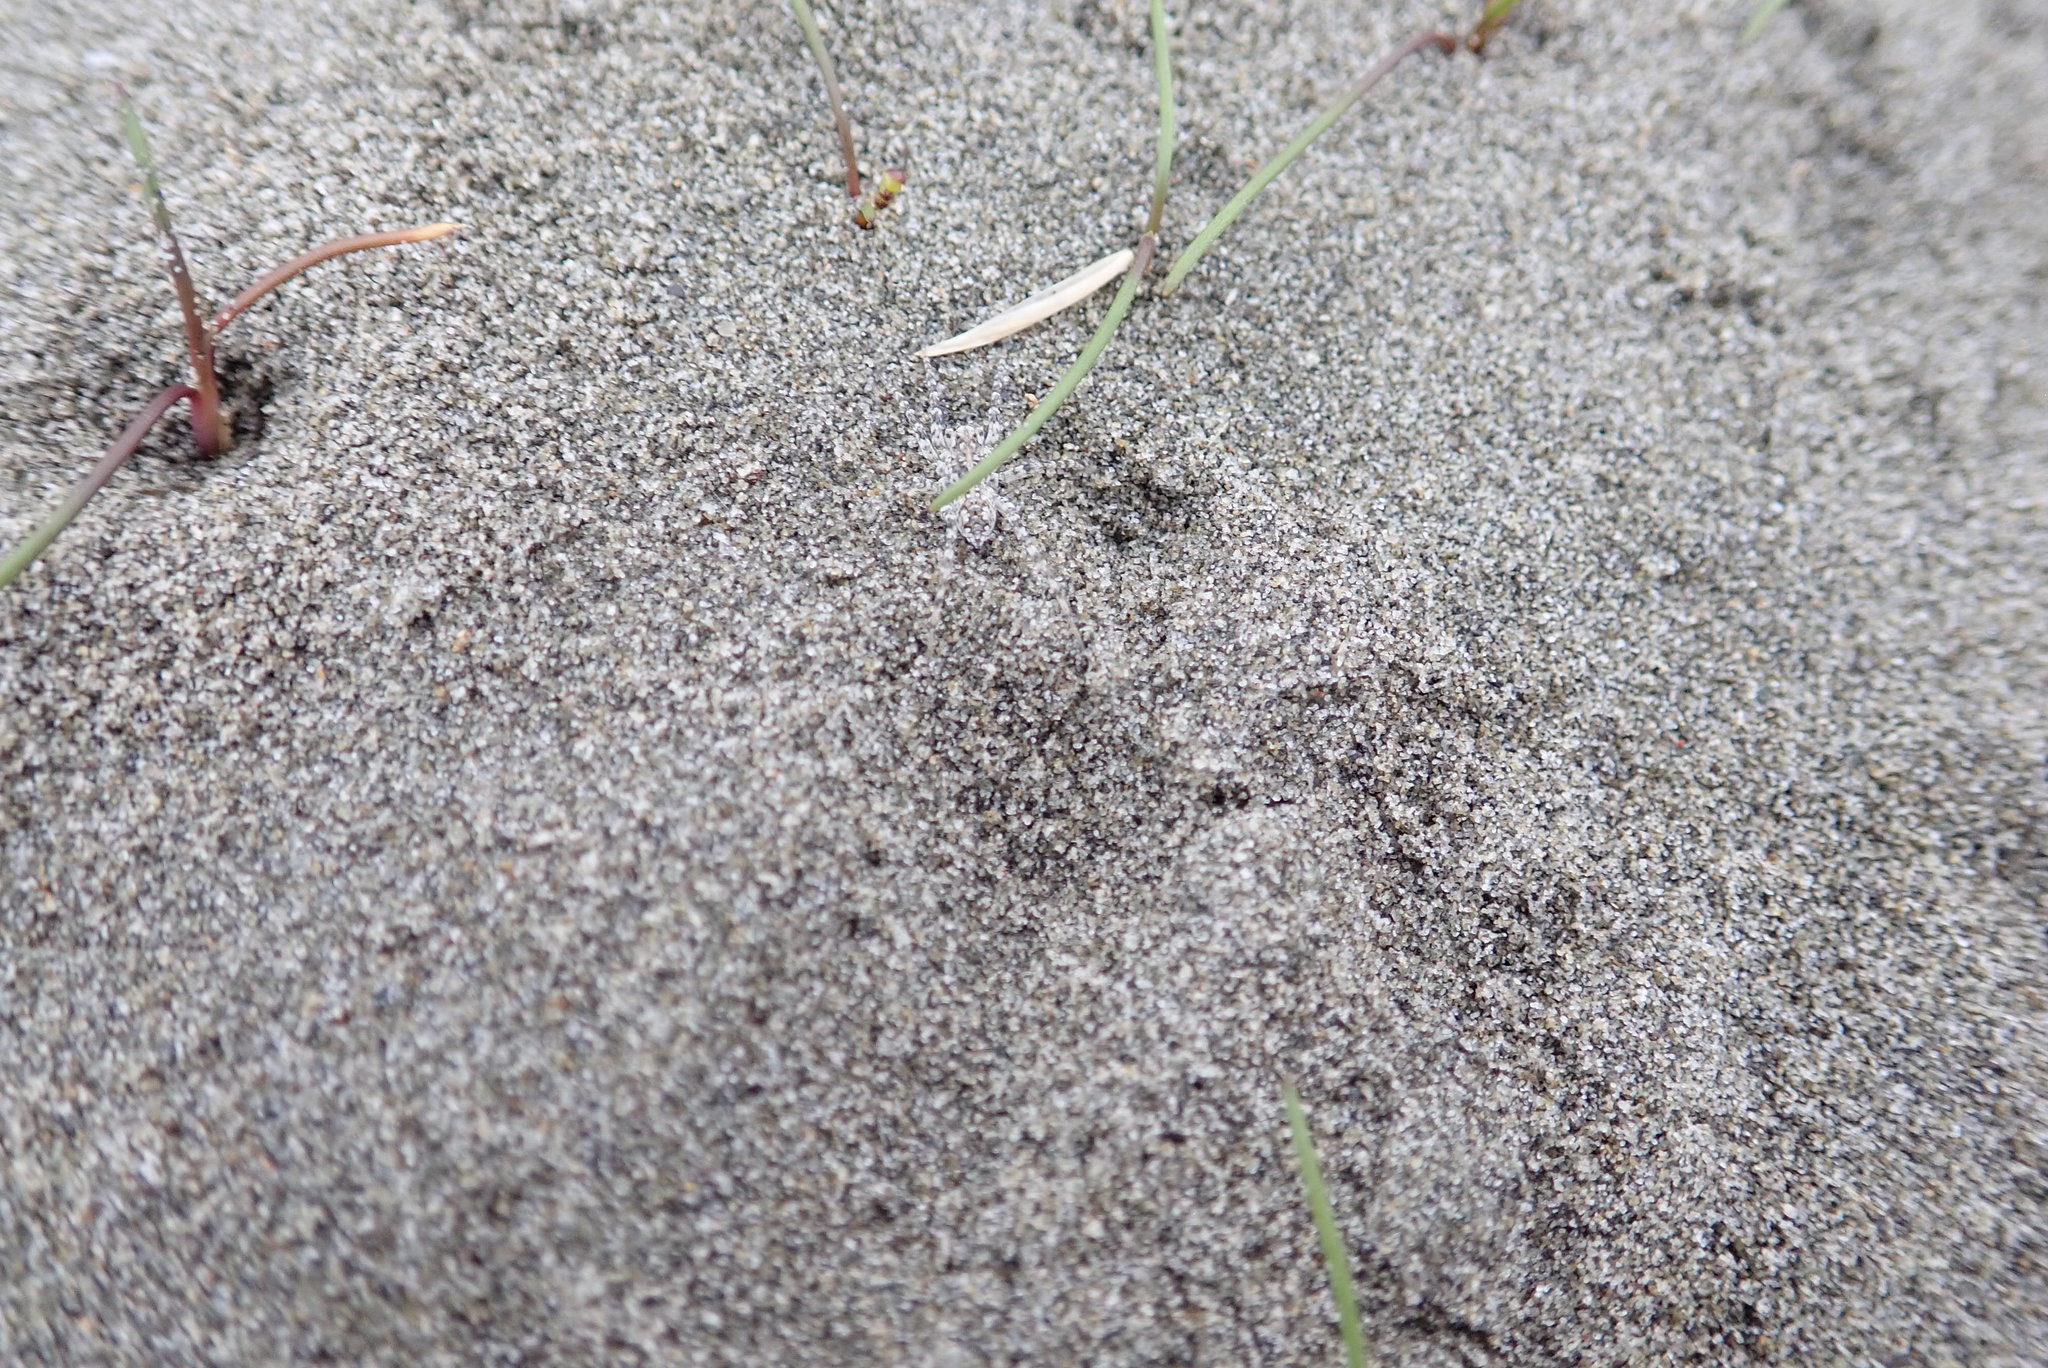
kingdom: Animalia
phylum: Arthropoda
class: Arachnida
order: Araneae
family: Lycosidae
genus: Anoteropsis
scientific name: Anoteropsis litoralis
